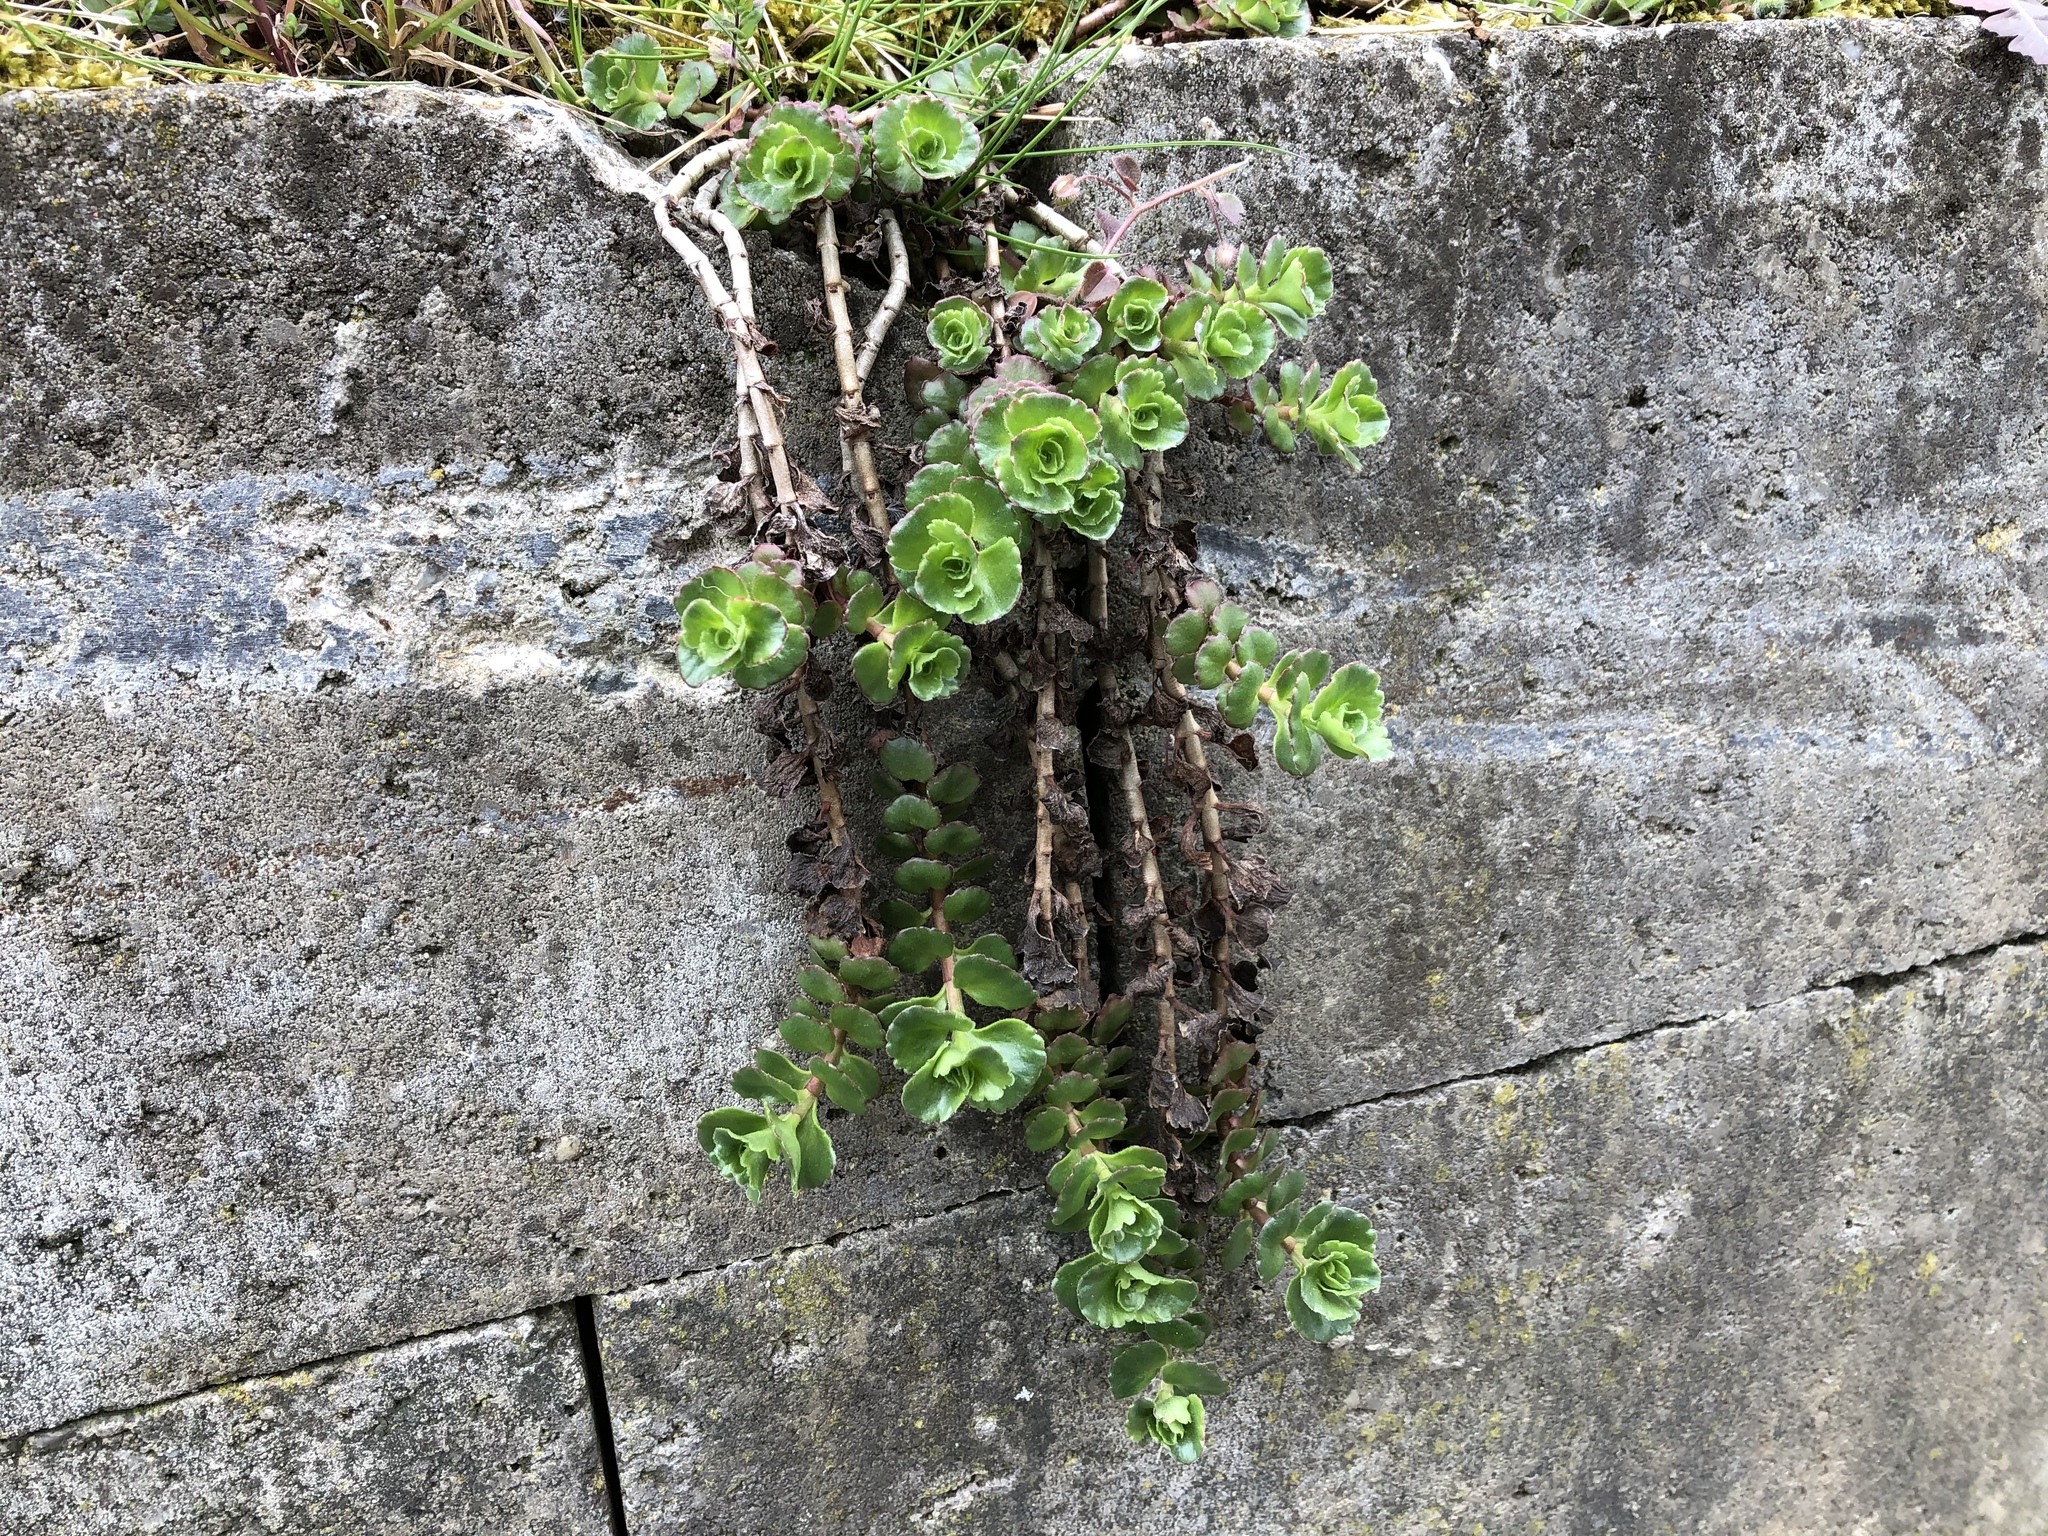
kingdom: Plantae
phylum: Tracheophyta
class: Magnoliopsida
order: Saxifragales
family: Crassulaceae
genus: Phedimus
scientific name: Phedimus spurius
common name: Caucasian stonecrop
